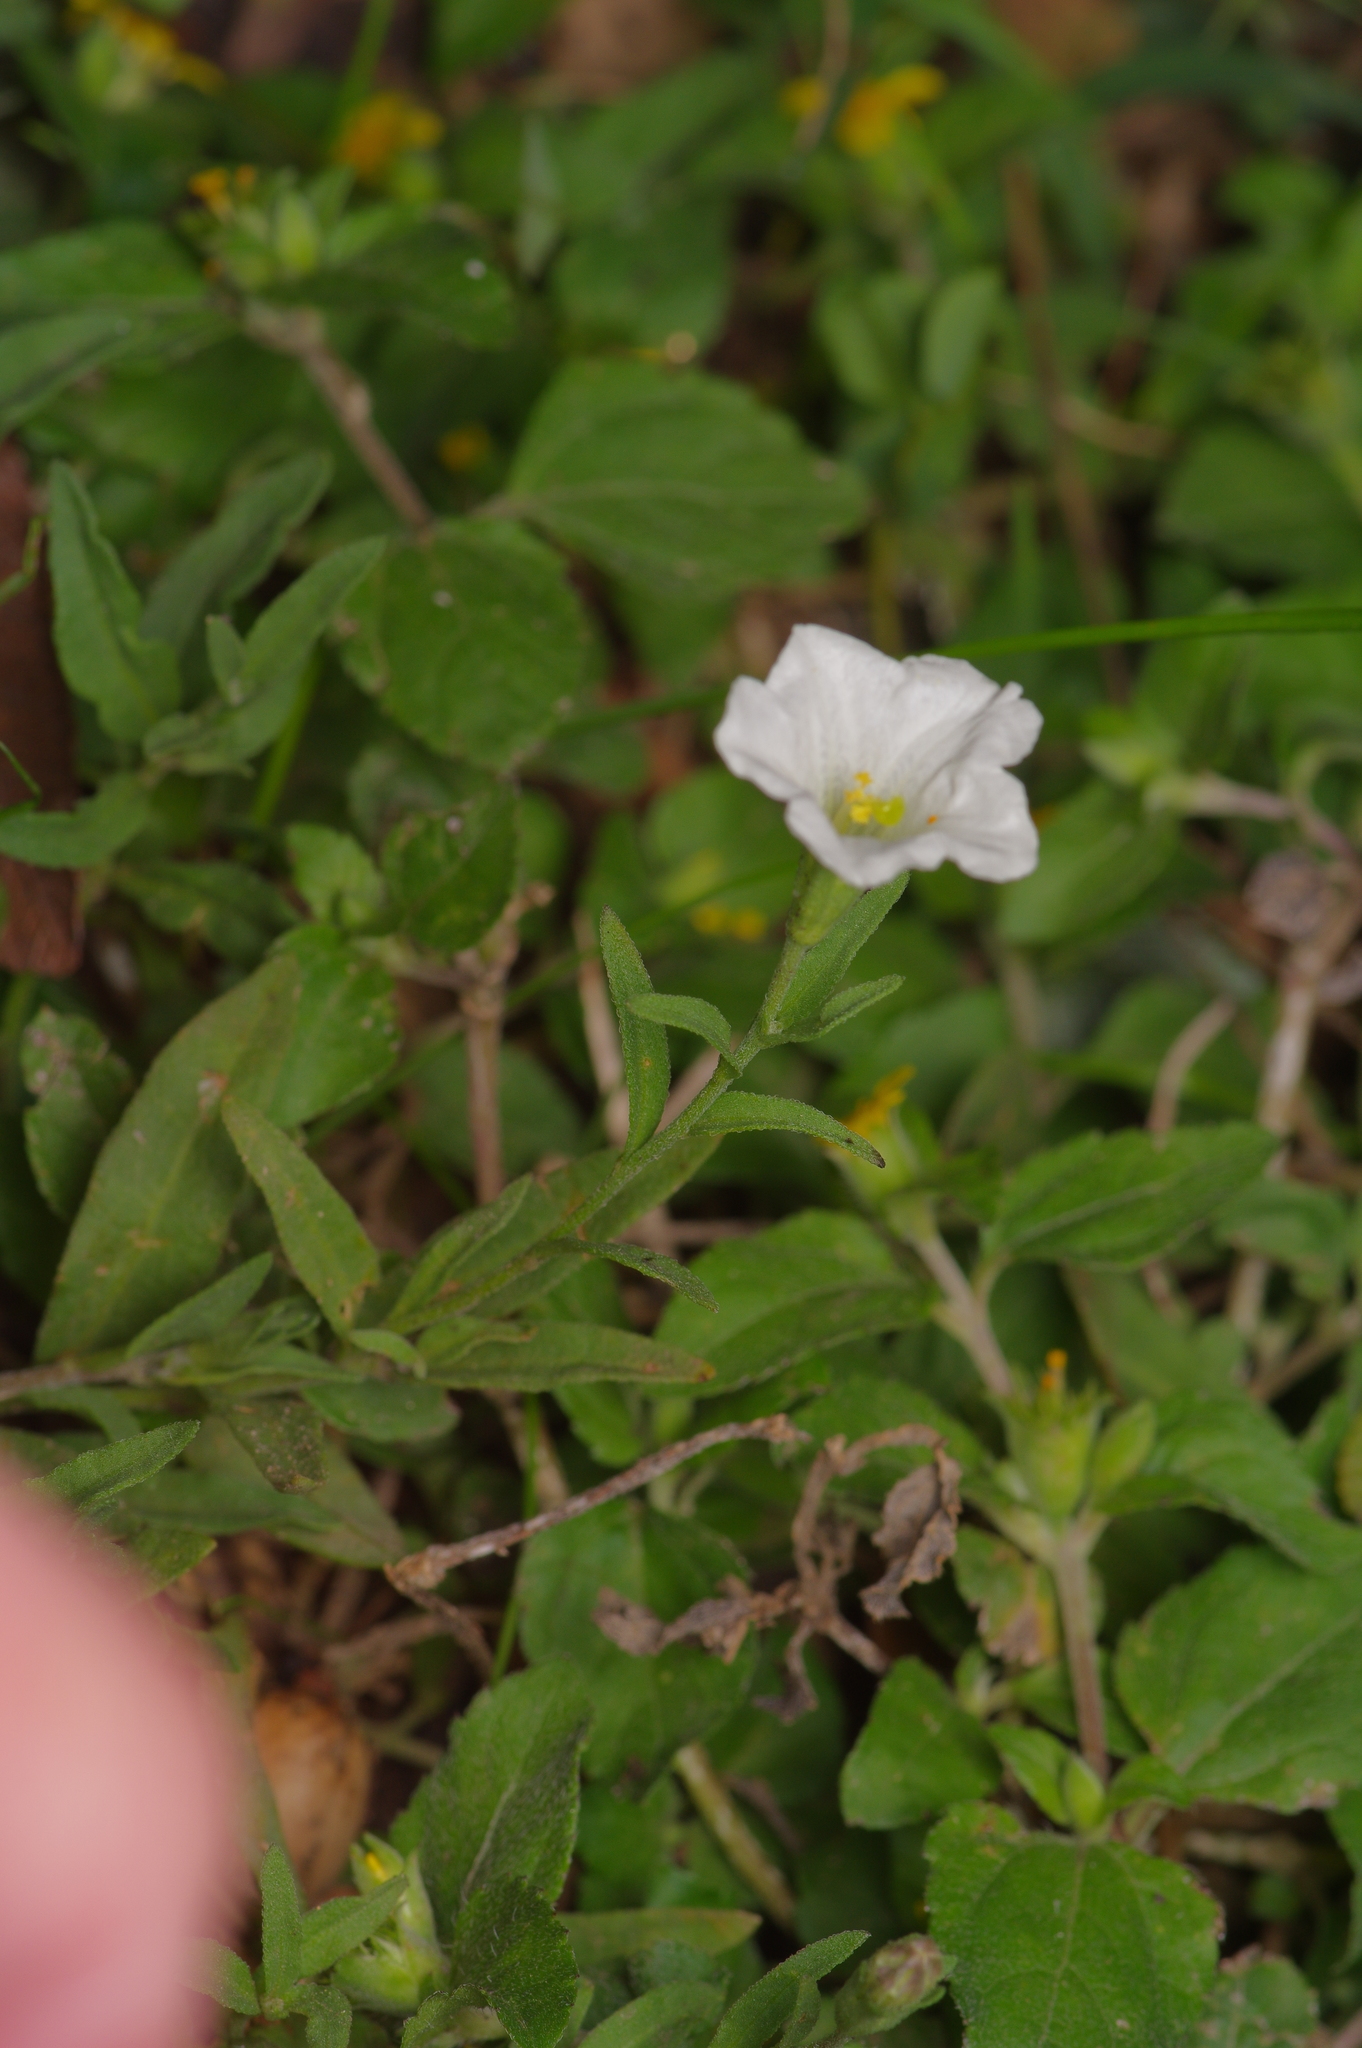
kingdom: Plantae
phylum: Tracheophyta
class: Magnoliopsida
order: Solanales
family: Solanaceae
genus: Salpiglossis
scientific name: Salpiglossis erecta
